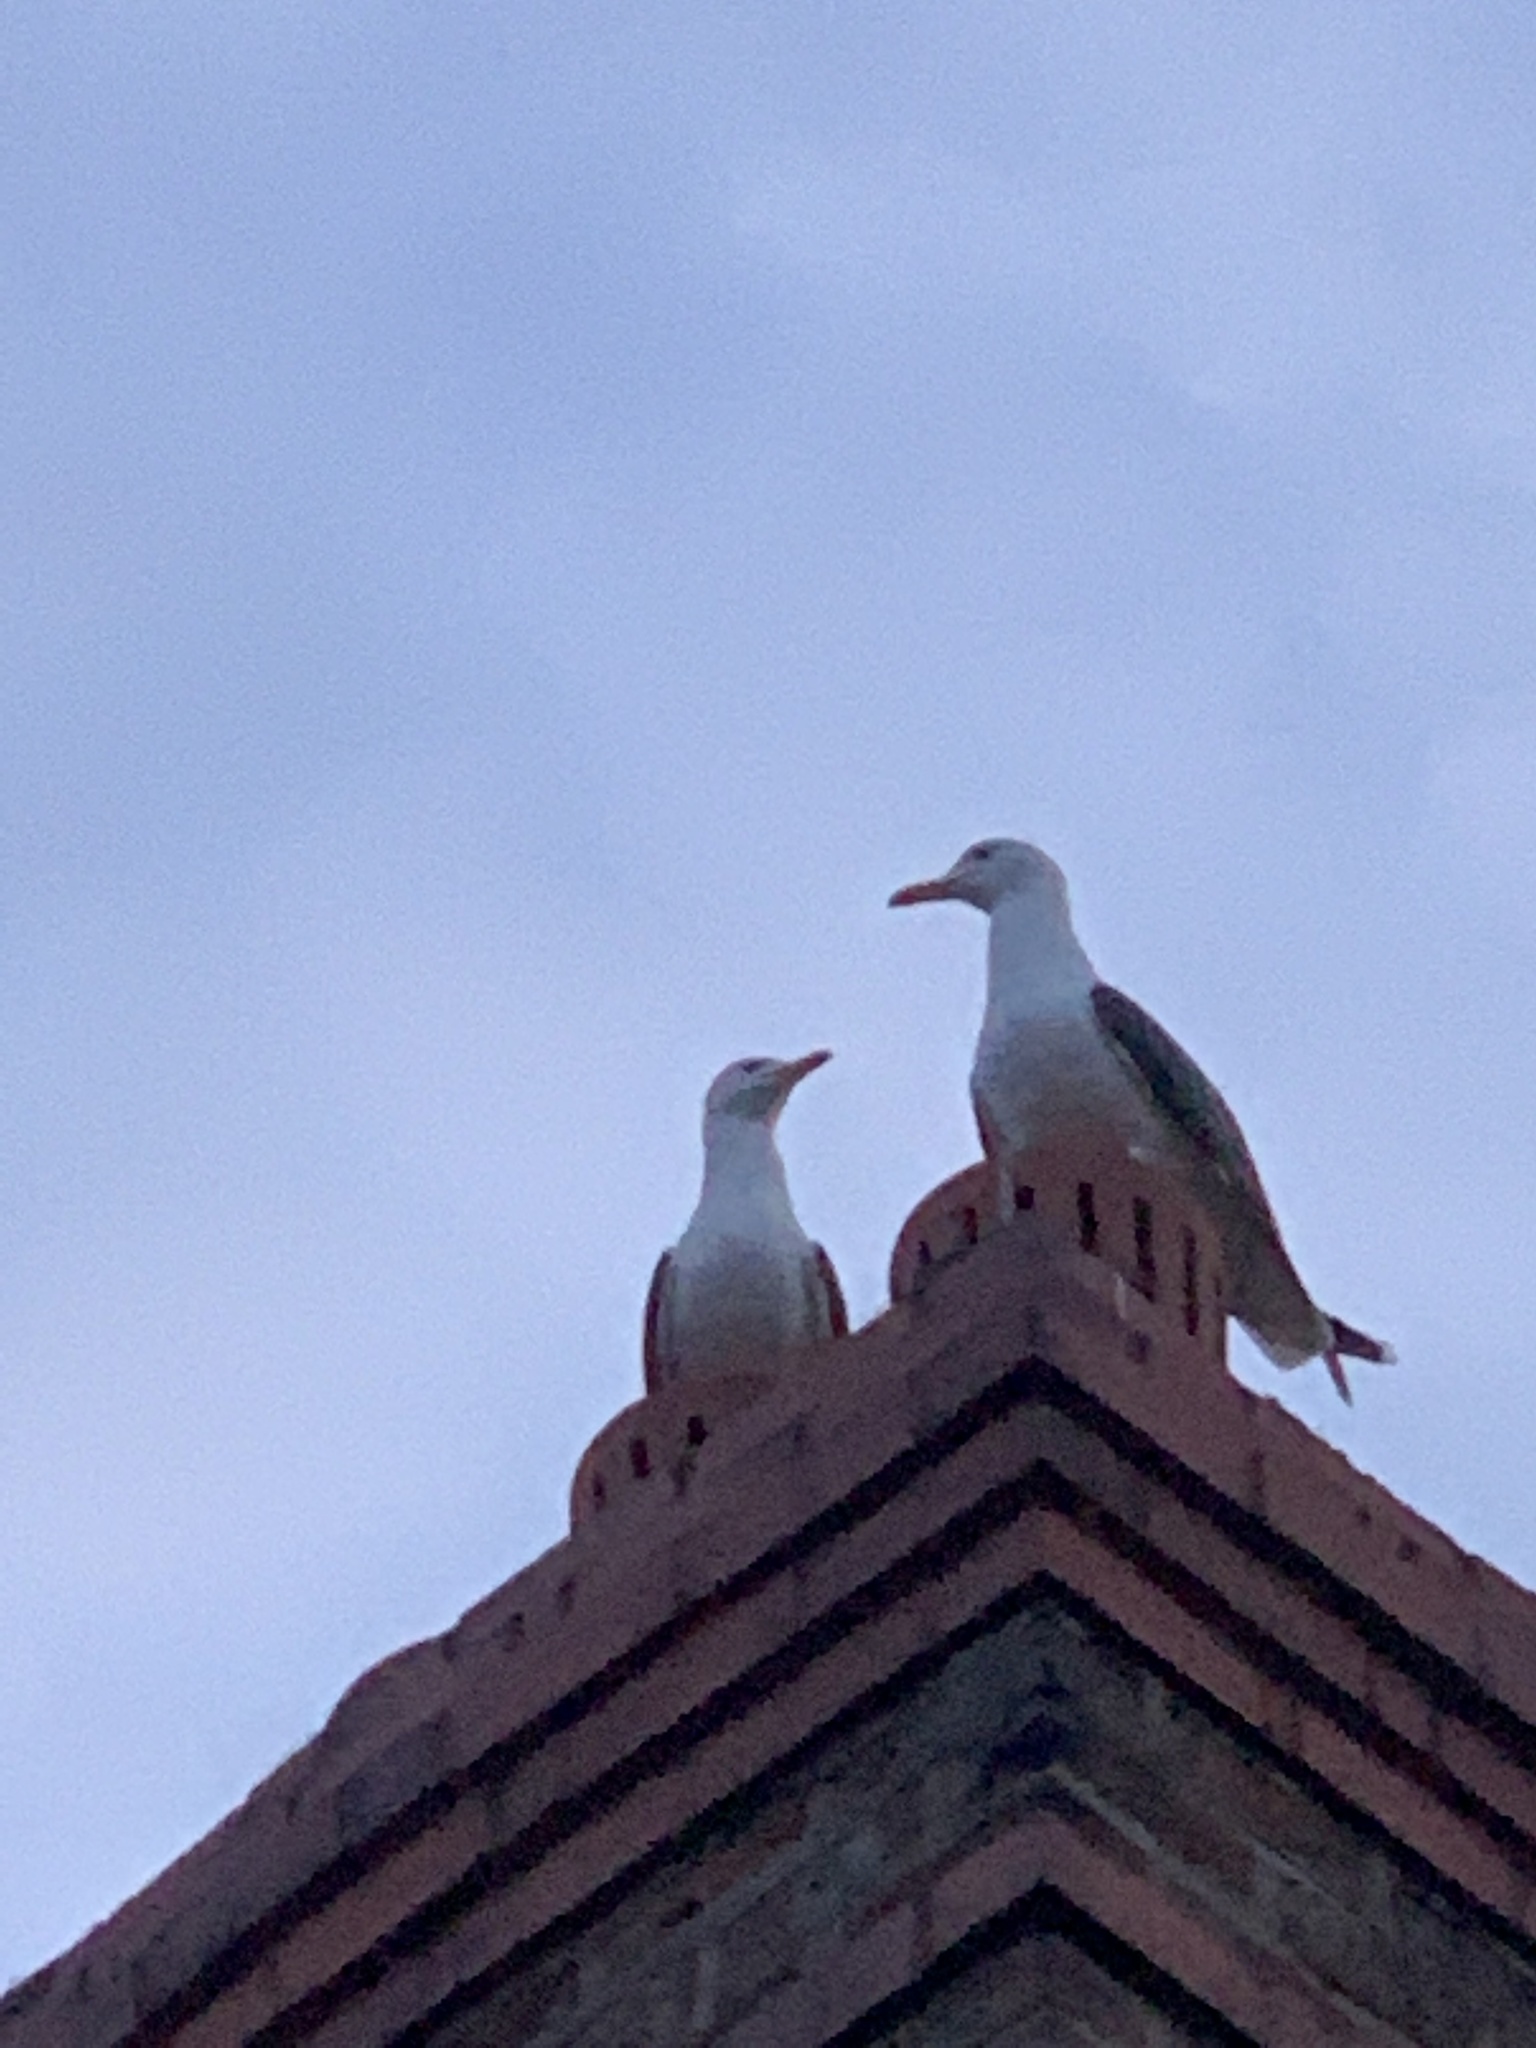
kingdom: Animalia
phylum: Chordata
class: Aves
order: Charadriiformes
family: Laridae
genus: Larus
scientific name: Larus fuscus
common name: Lesser black-backed gull
